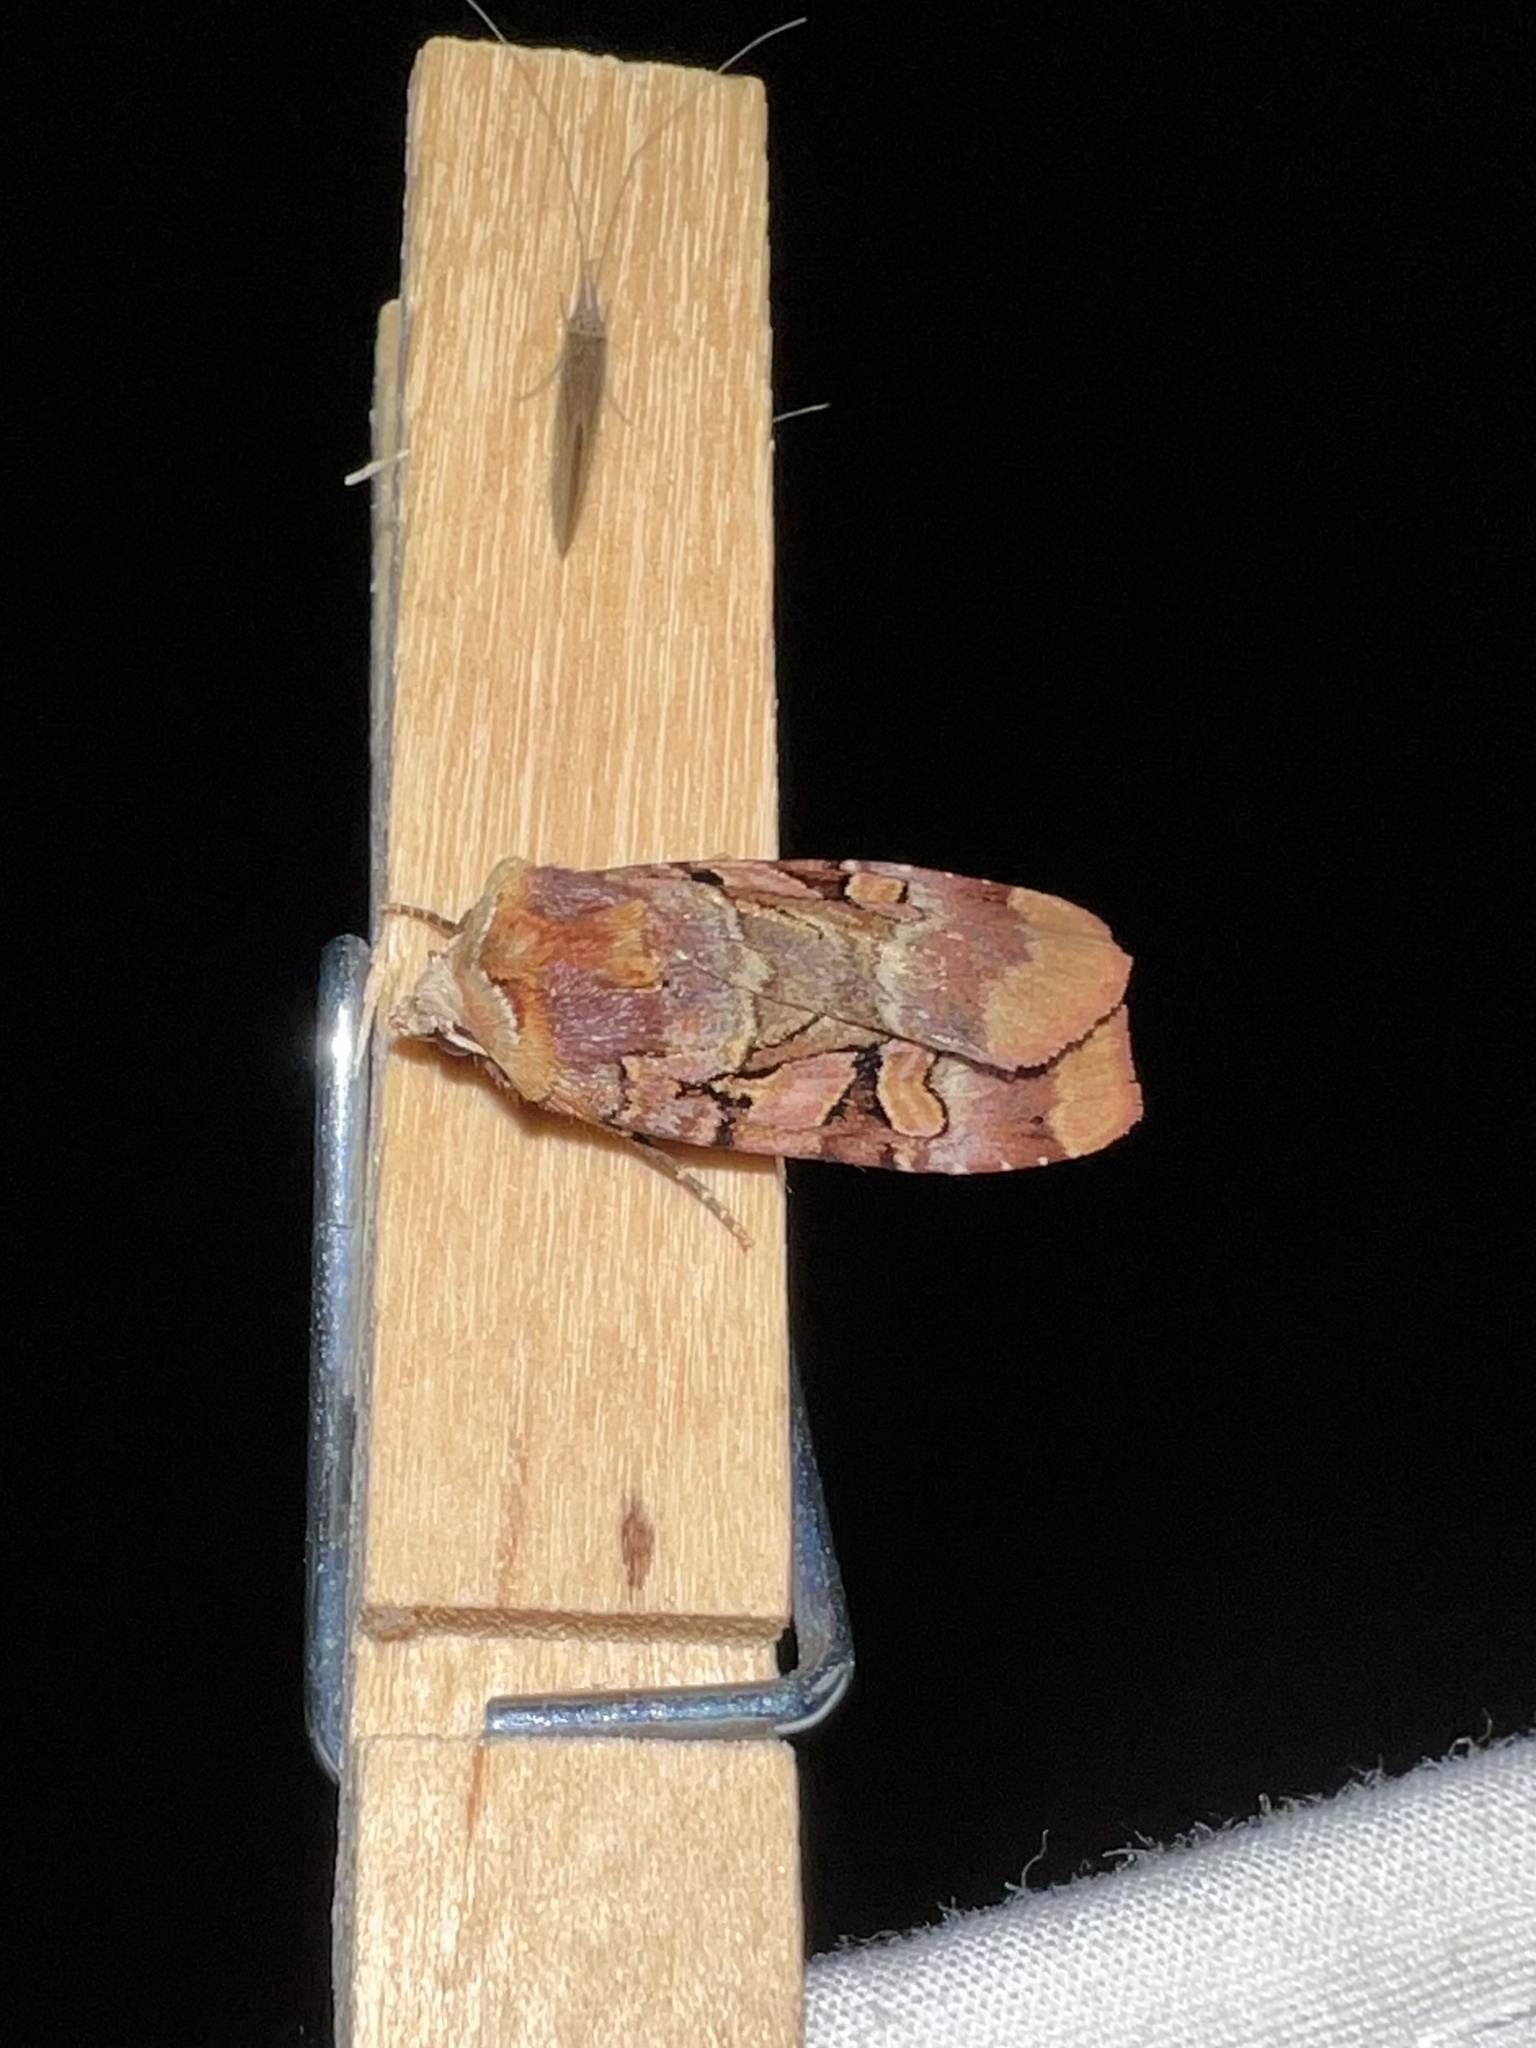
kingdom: Animalia
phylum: Arthropoda
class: Insecta
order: Lepidoptera
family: Noctuidae
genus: Xestia
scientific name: Xestia oblata
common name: Rosy dart
